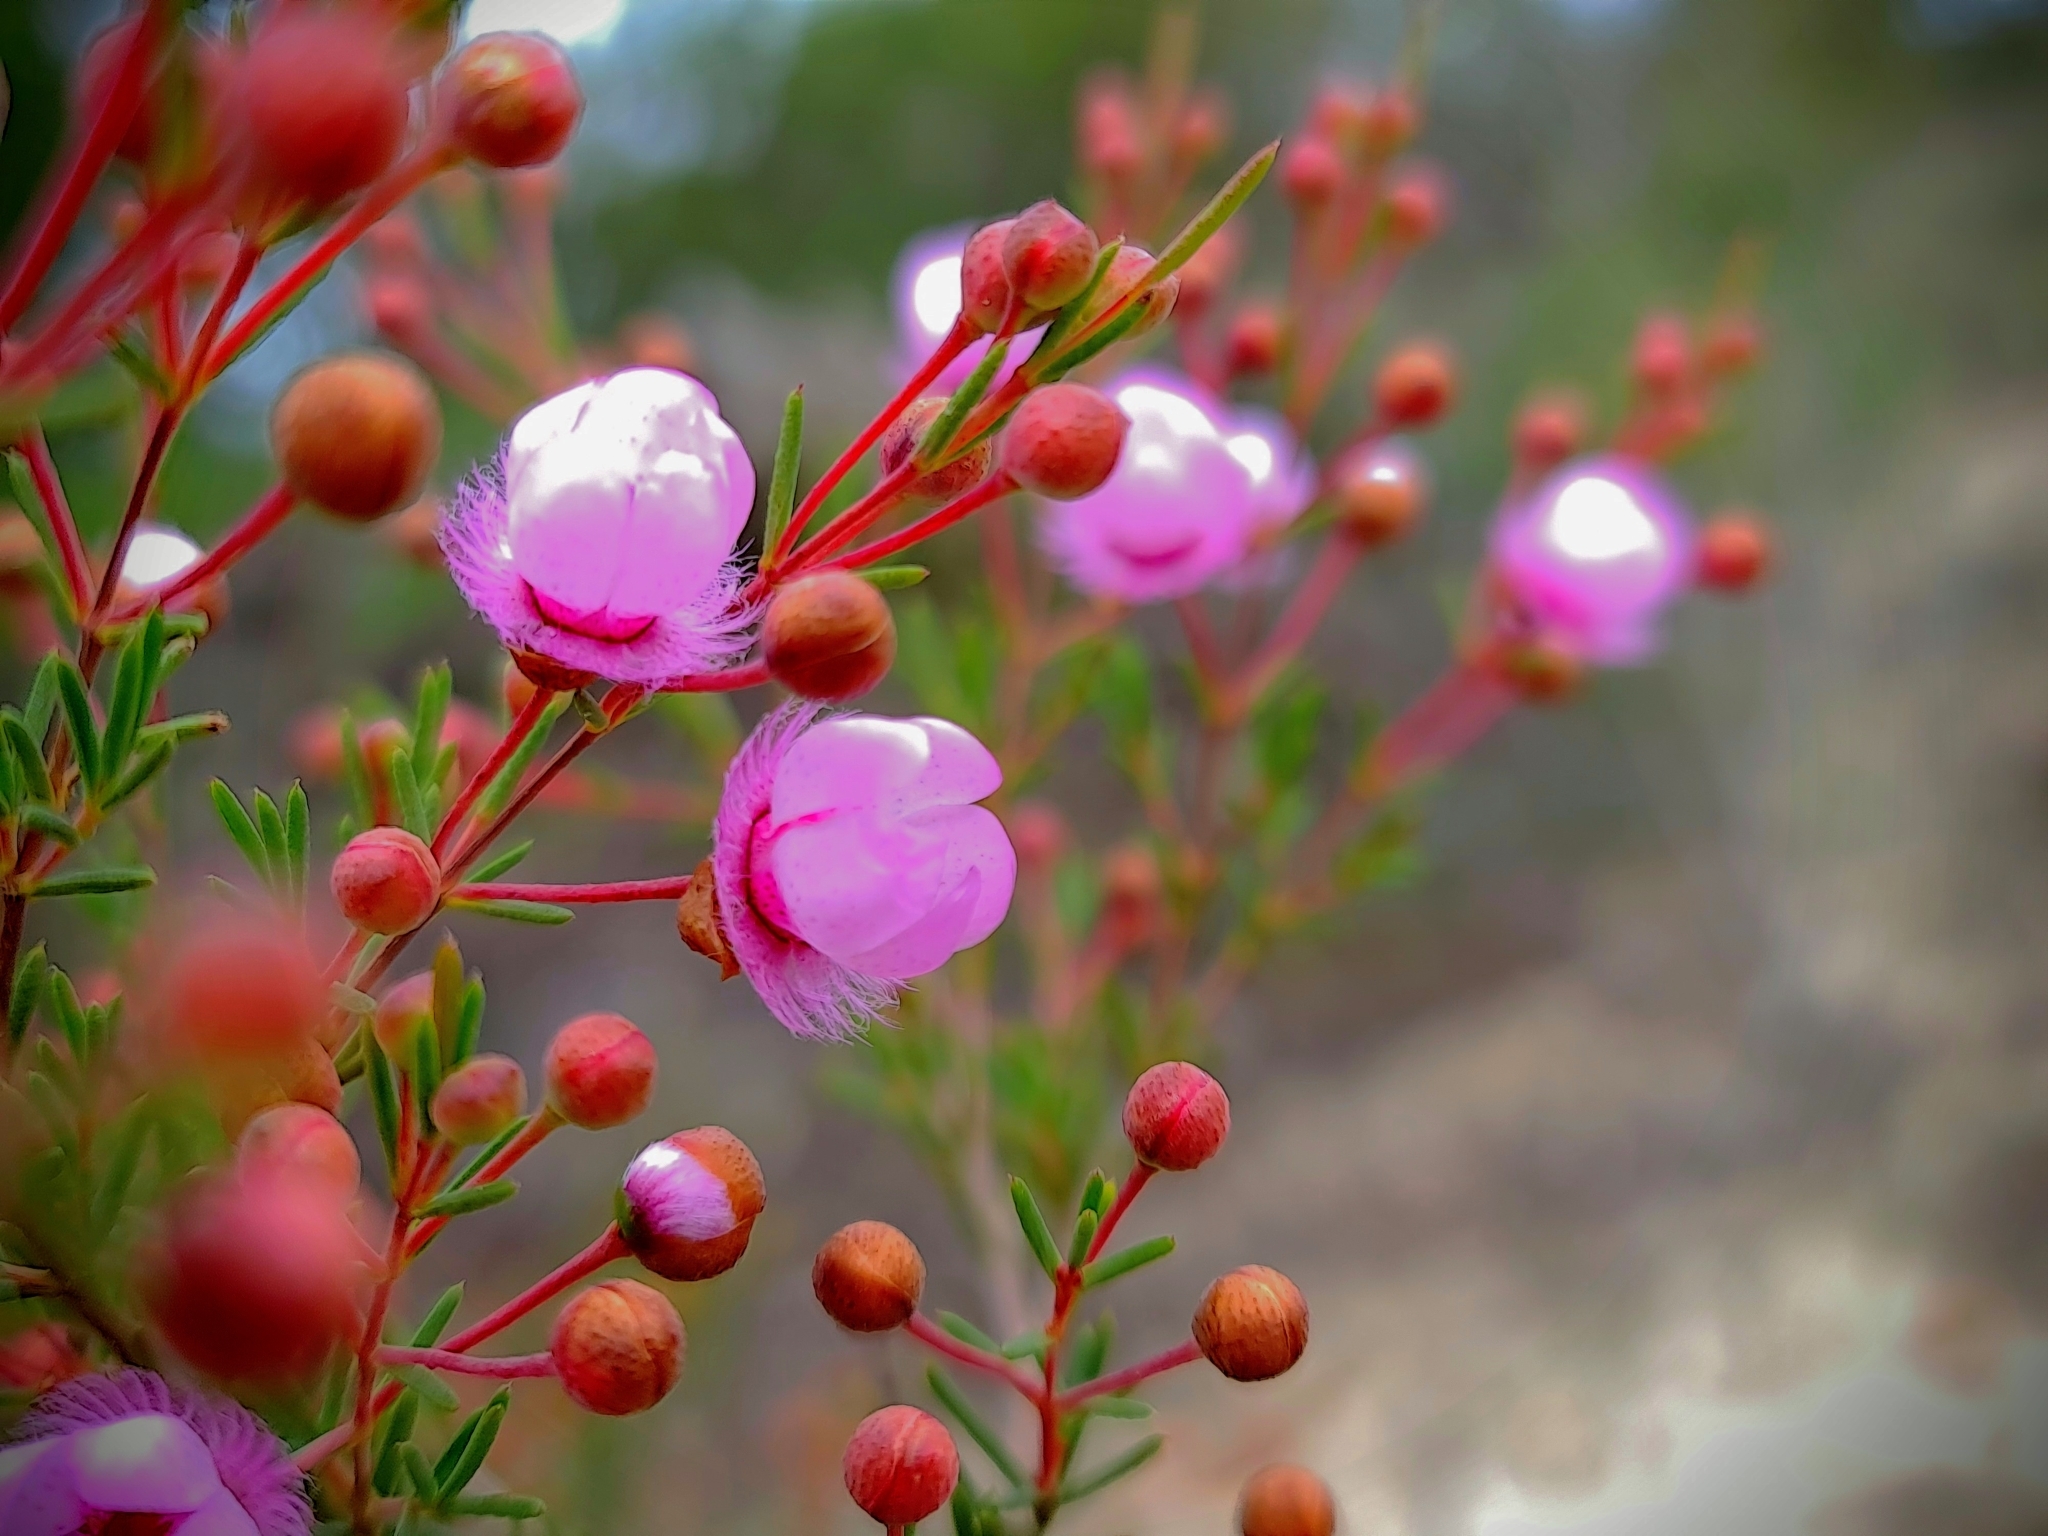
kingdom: Plantae
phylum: Tracheophyta
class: Magnoliopsida
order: Myrtales
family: Myrtaceae
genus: Verticordia
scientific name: Verticordia picta
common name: Painted feather-flower
